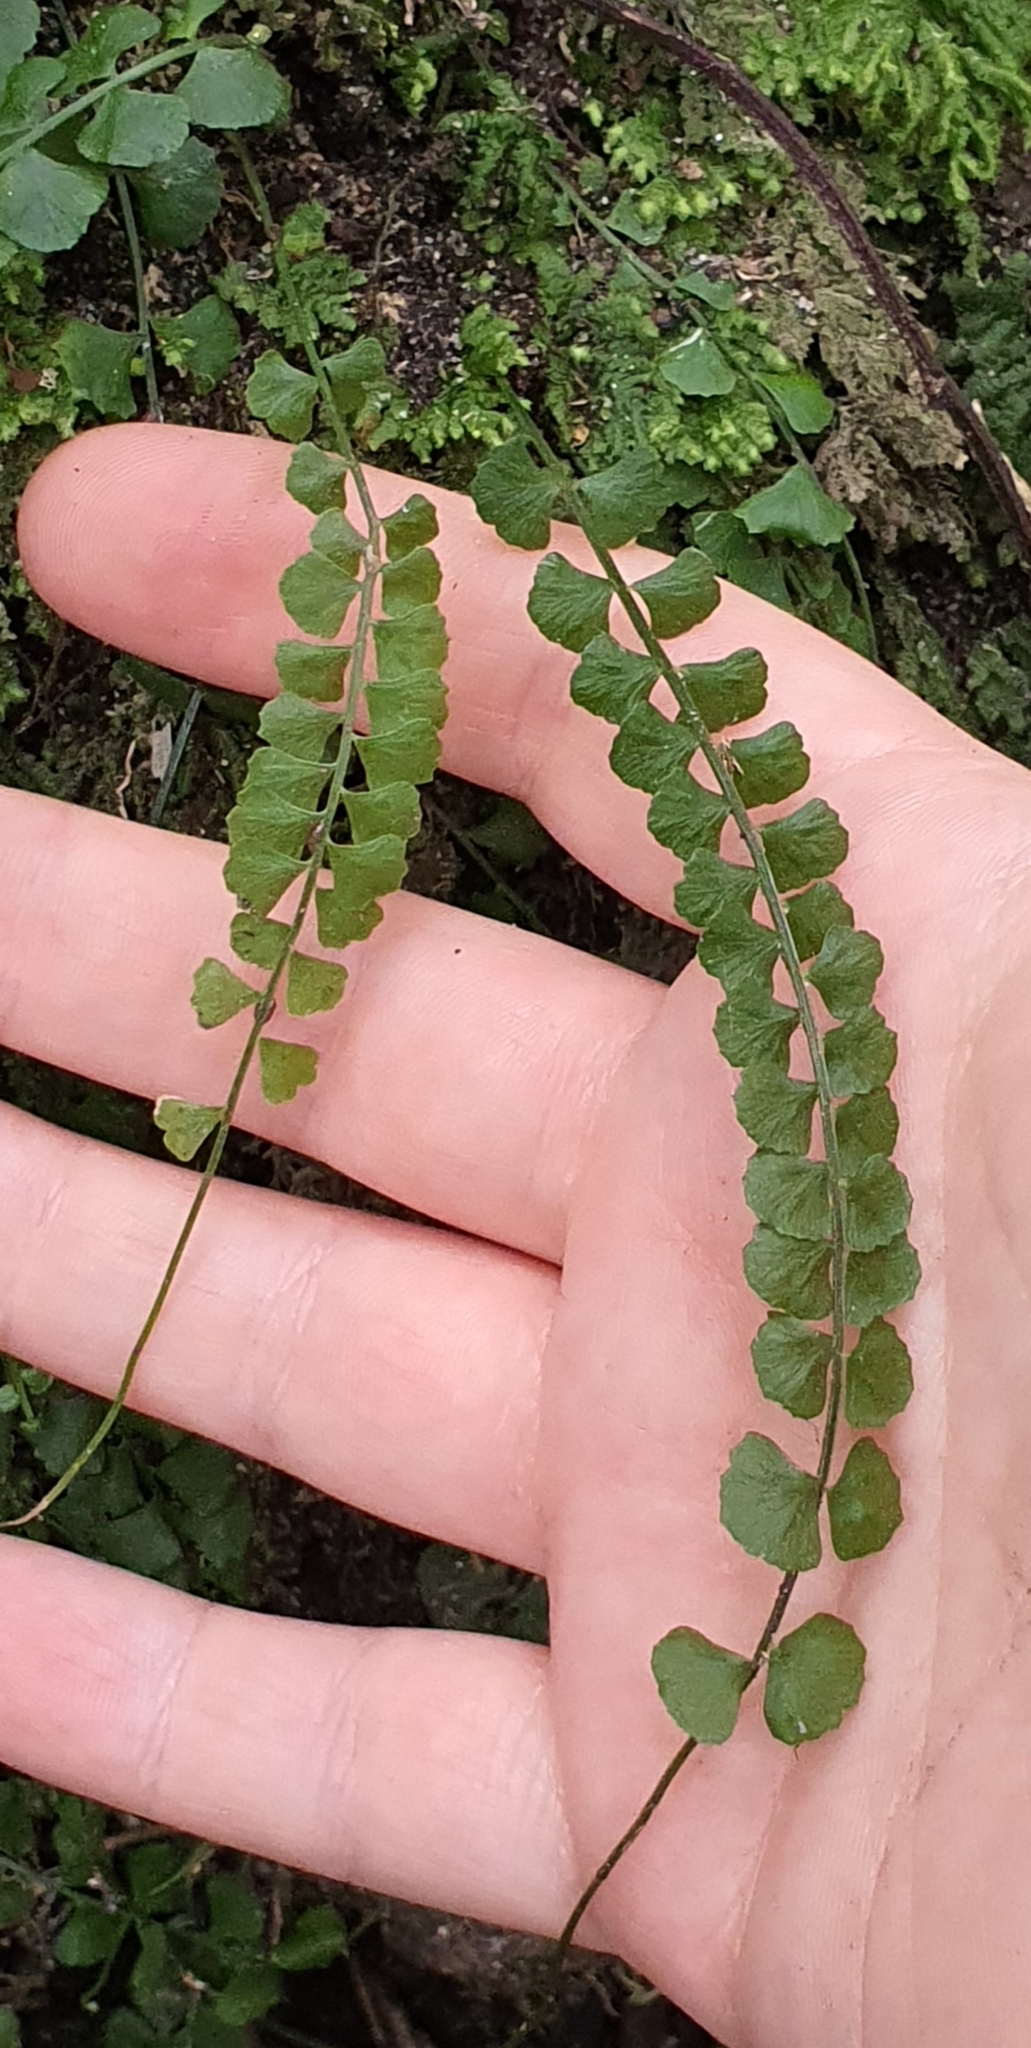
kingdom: Plantae
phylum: Tracheophyta
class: Polypodiopsida
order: Polypodiales
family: Aspleniaceae
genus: Asplenium
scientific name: Asplenium flabellifolium
